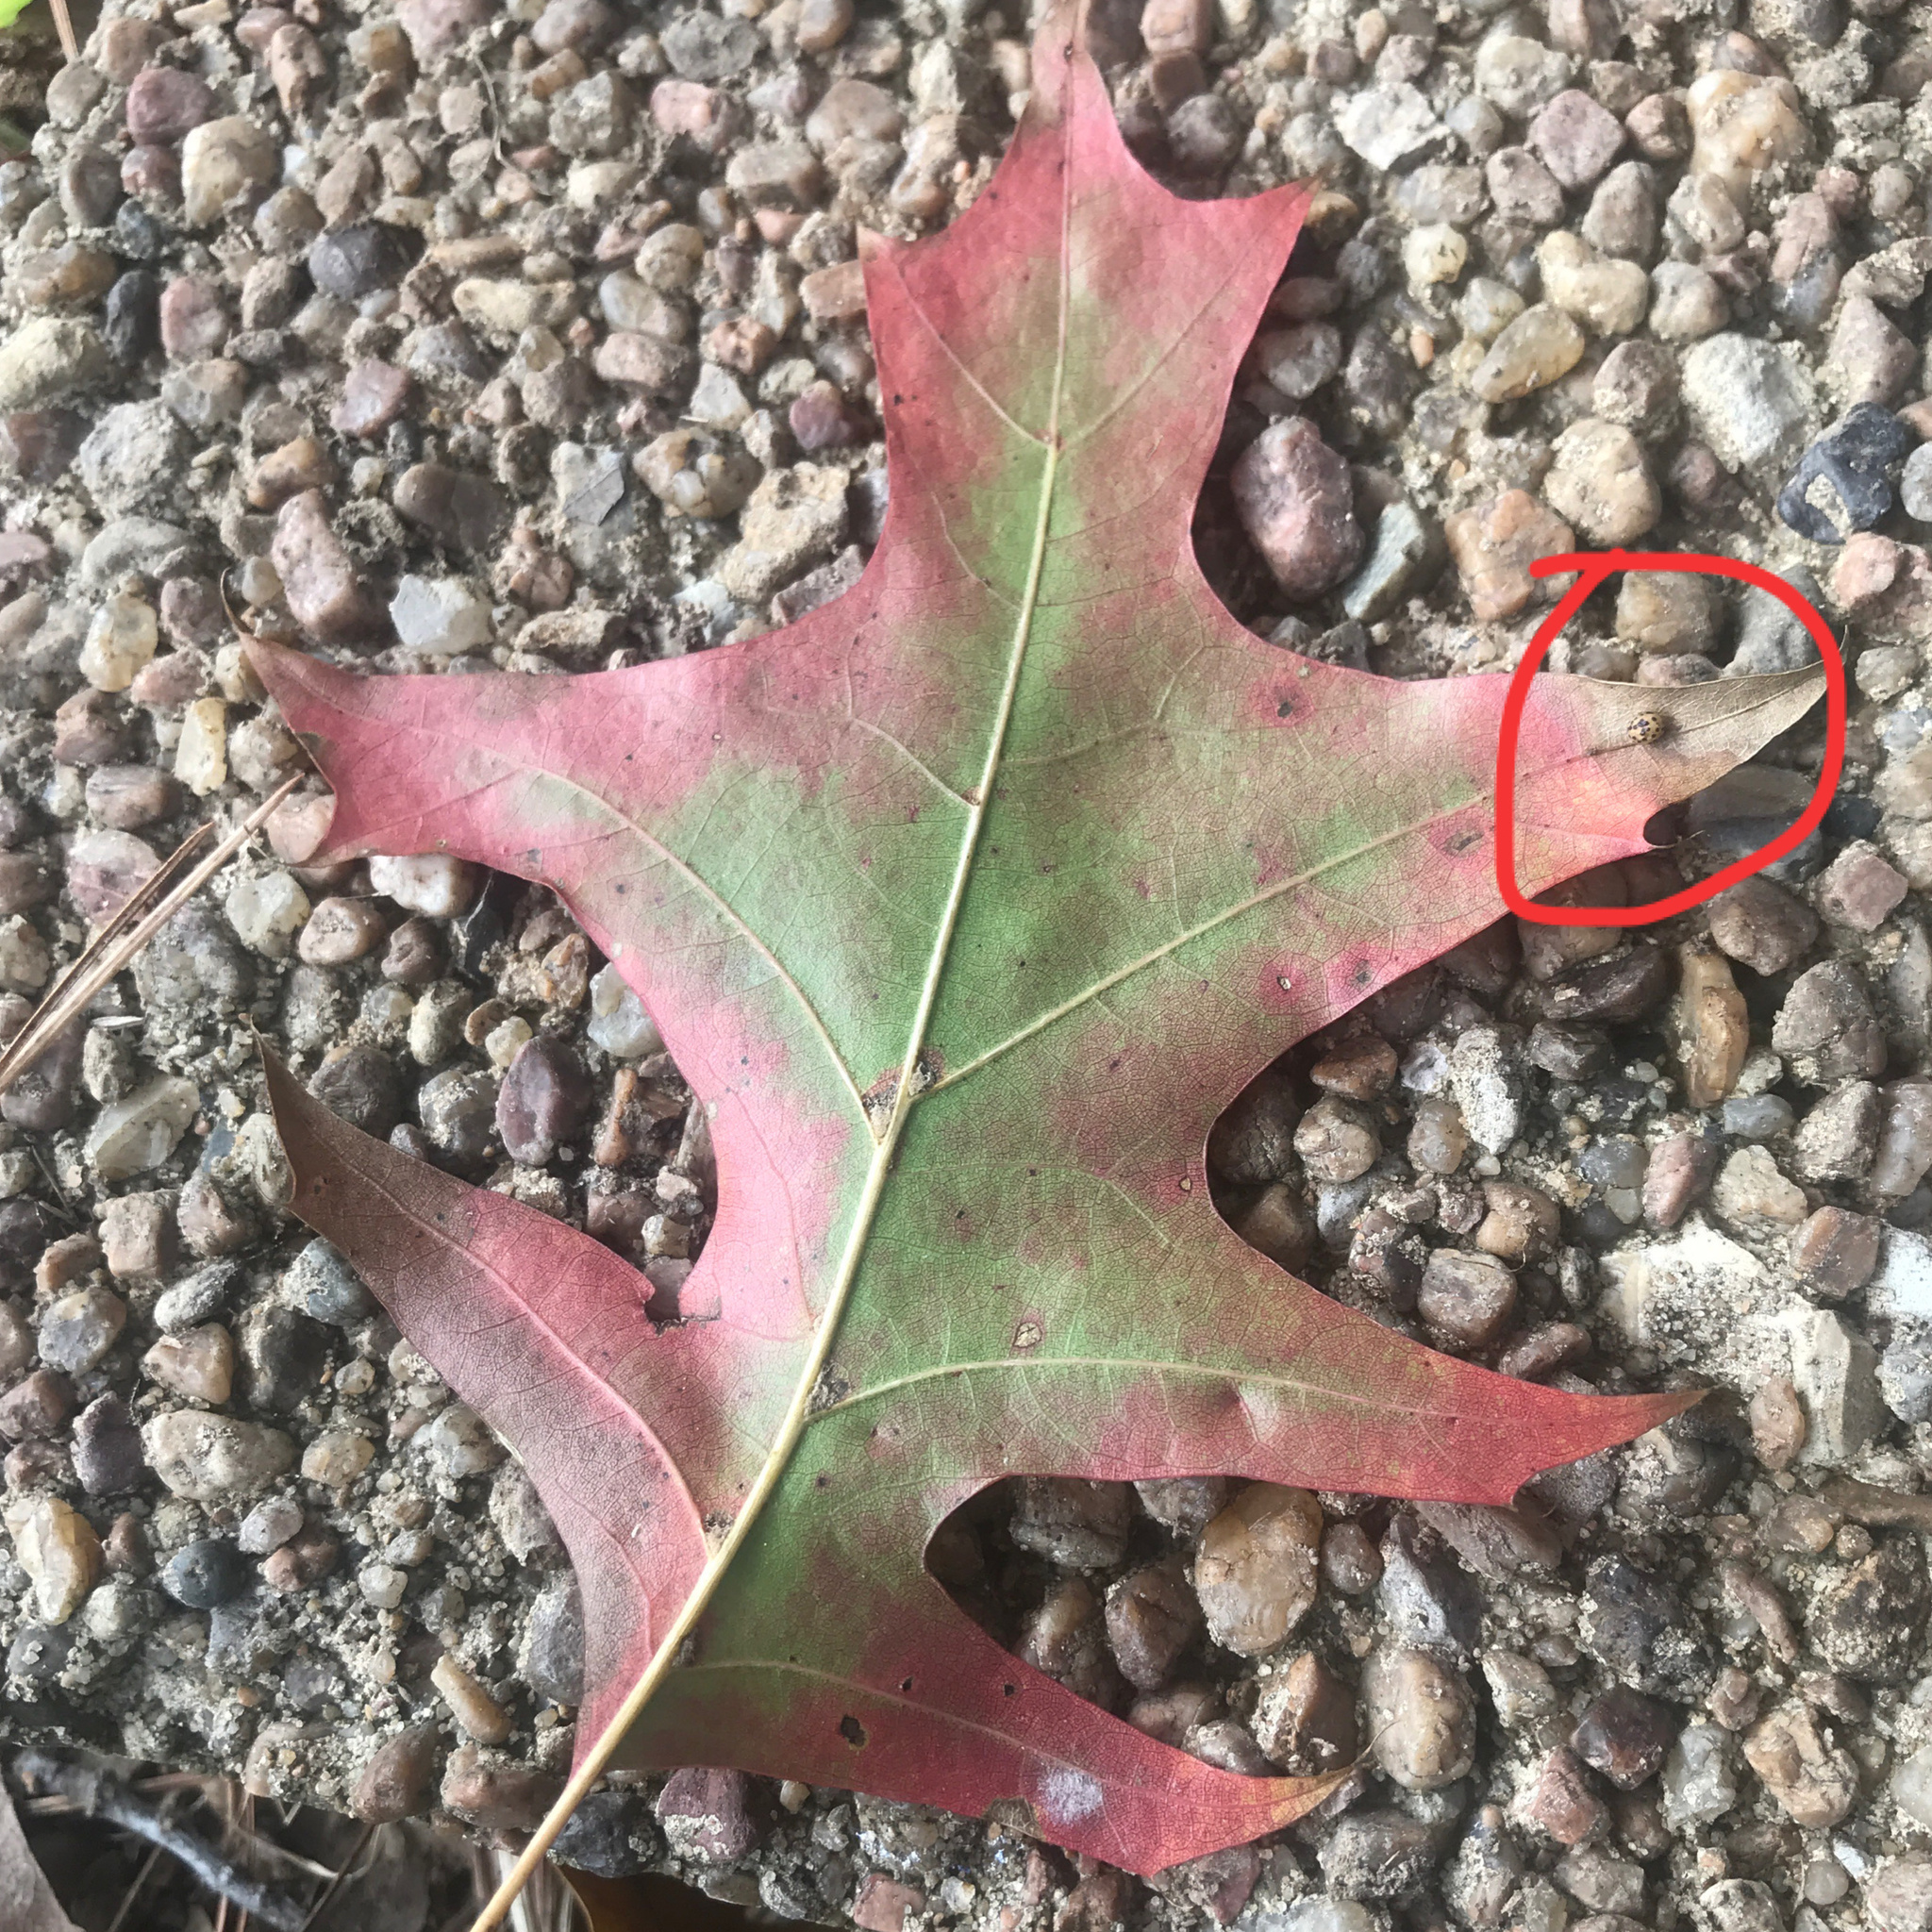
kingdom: Animalia
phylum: Arthropoda
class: Insecta
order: Hymenoptera
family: Cynipidae
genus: Zopheroteras
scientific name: Zopheroteras
